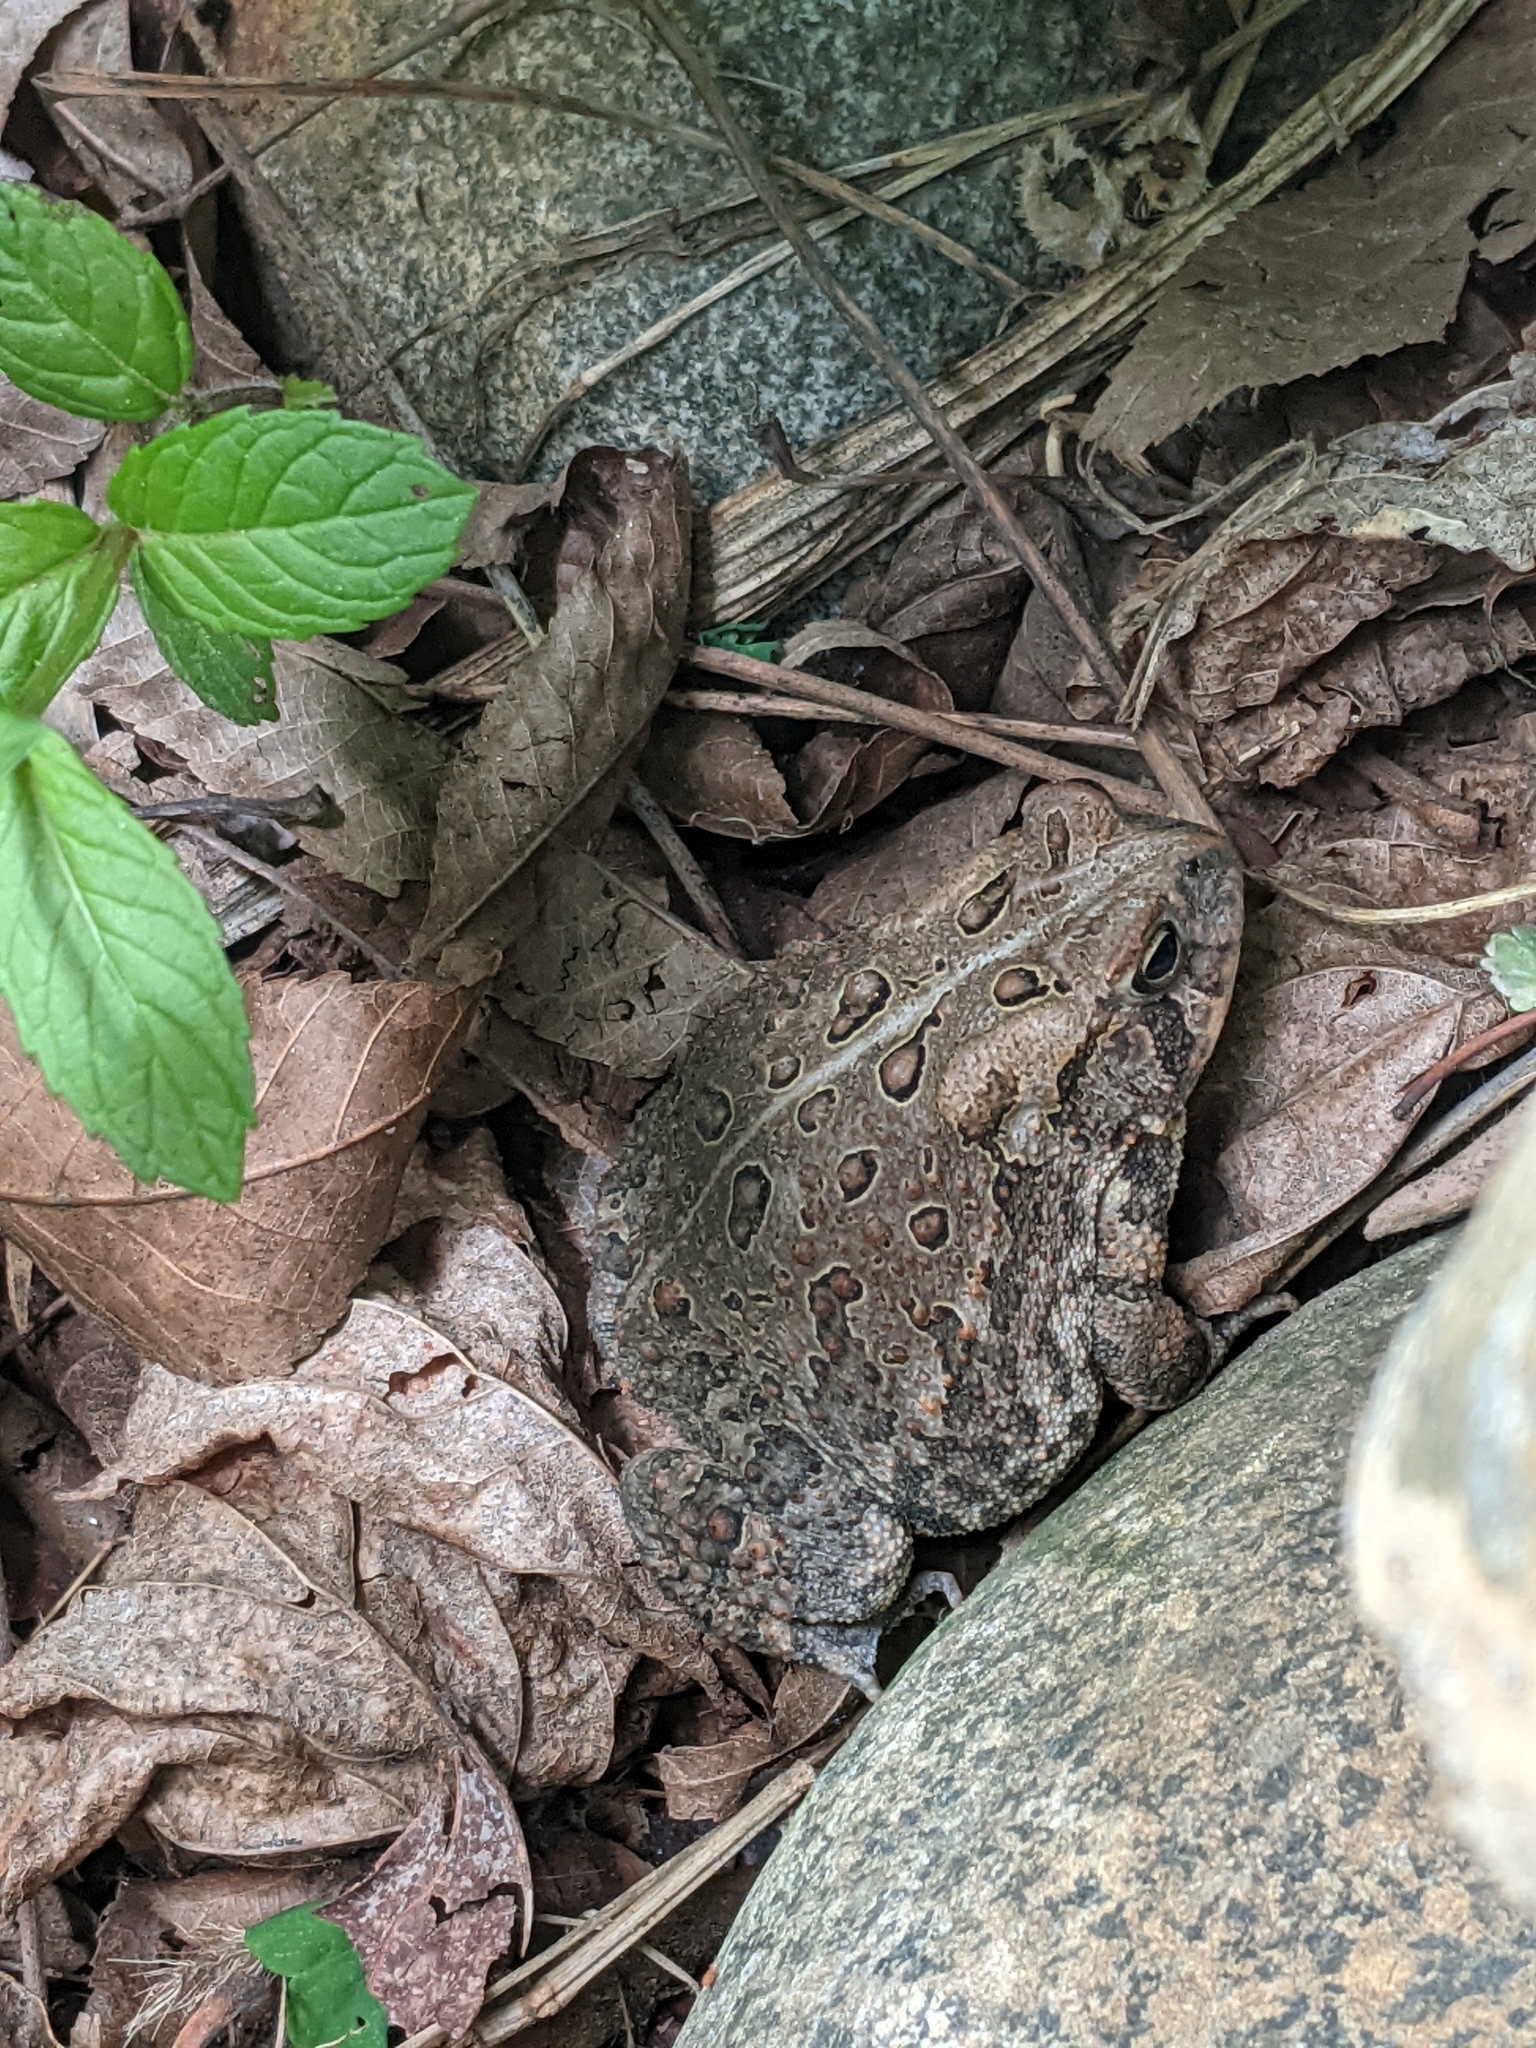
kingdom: Animalia
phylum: Chordata
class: Amphibia
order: Anura
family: Bufonidae
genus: Anaxyrus
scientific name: Anaxyrus americanus
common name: American toad
